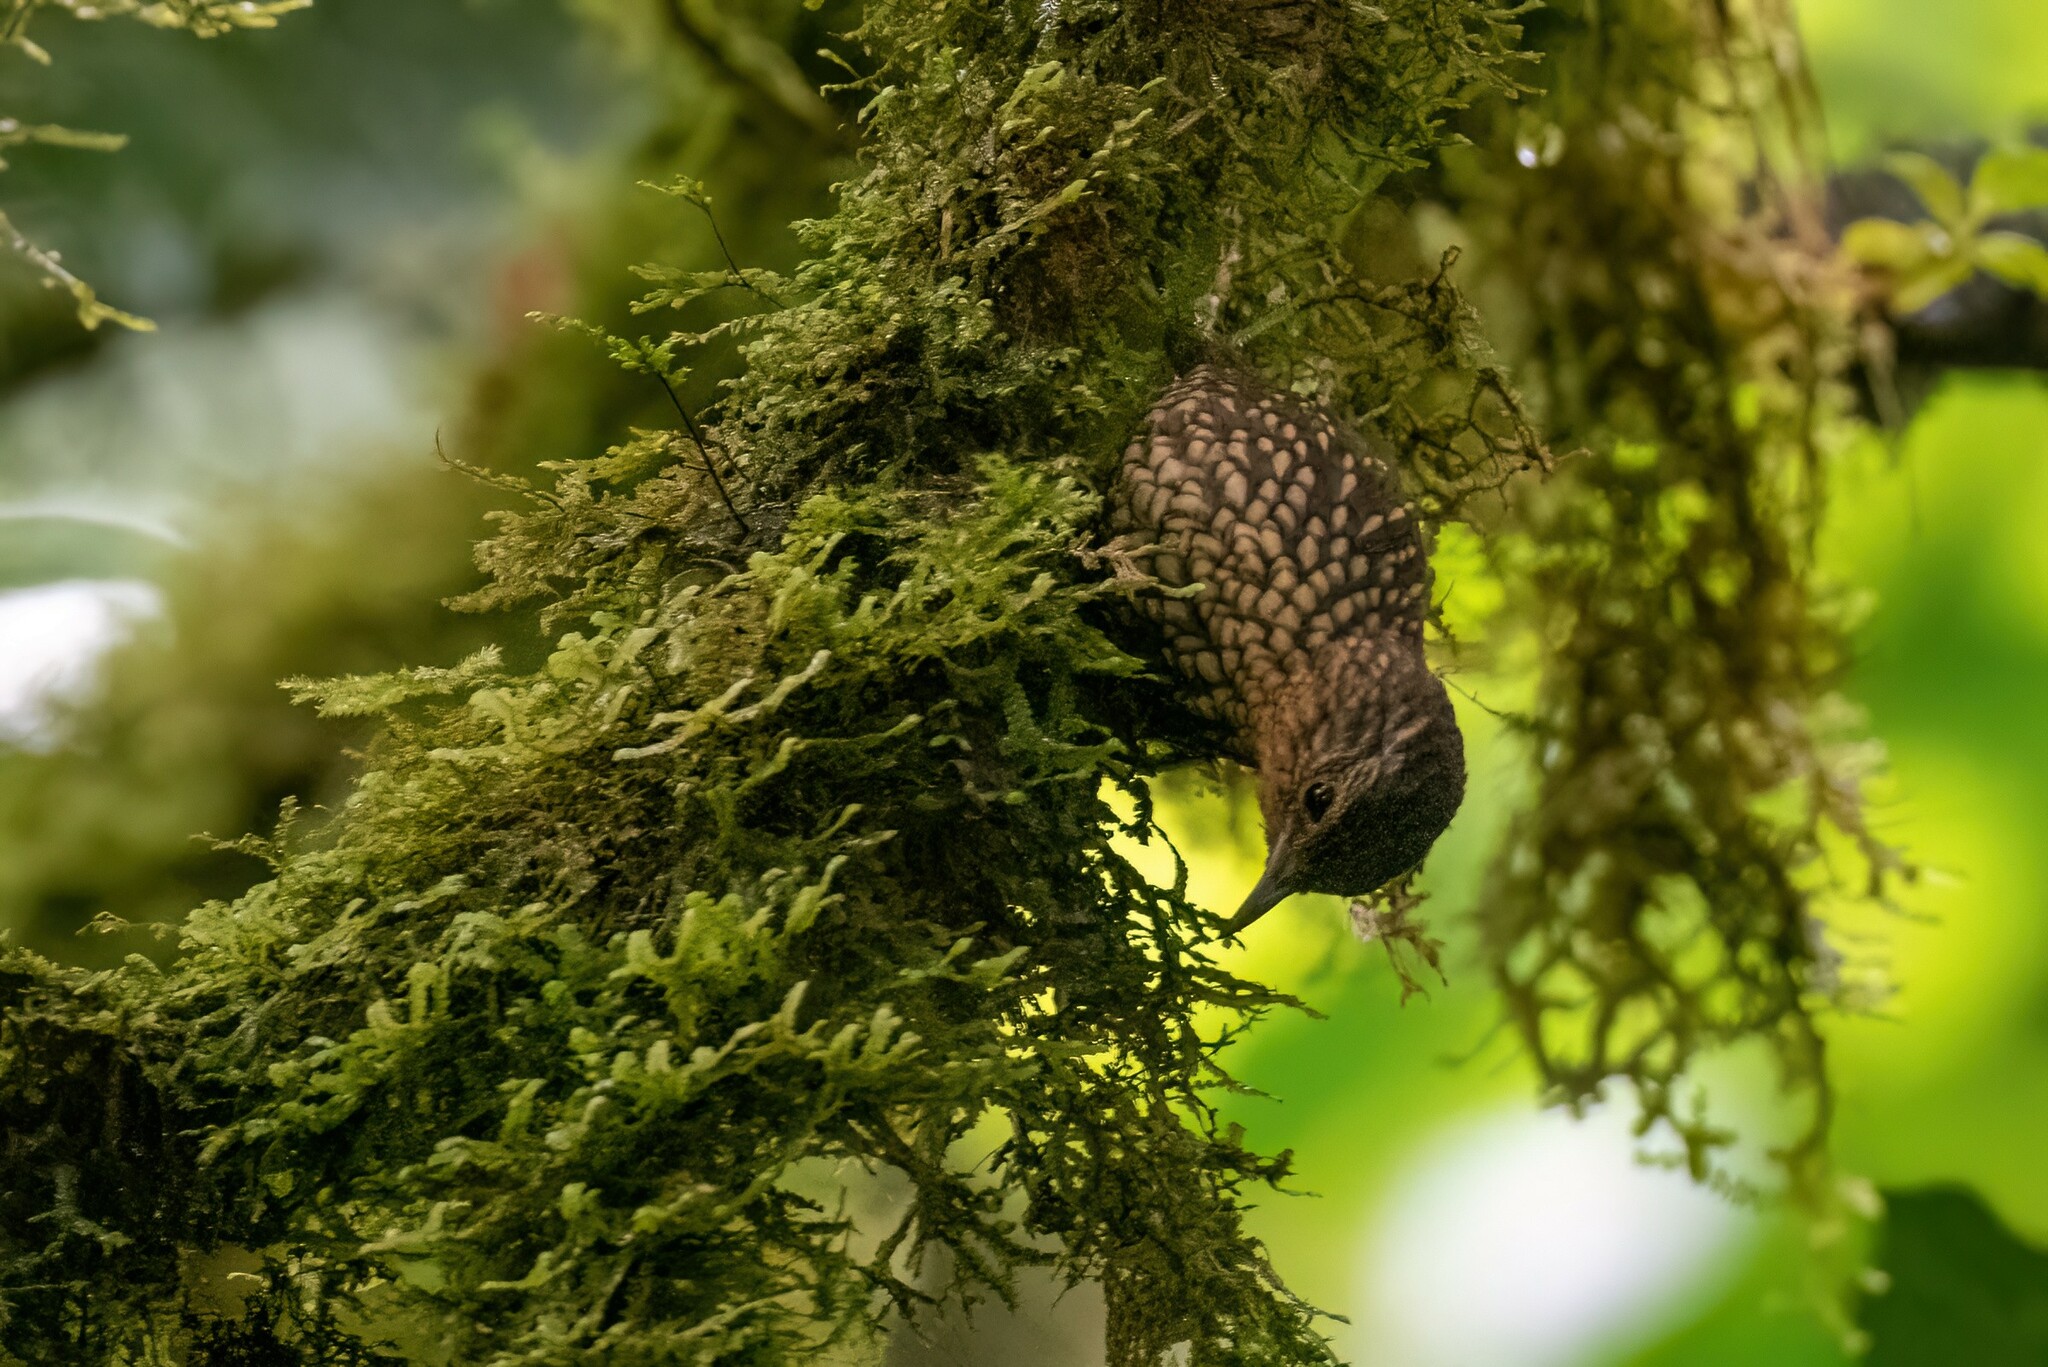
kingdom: Animalia
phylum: Chordata
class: Aves
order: Passeriformes
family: Furnariidae
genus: Premnoplex
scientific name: Premnoplex brunnescens
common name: Spotted barbtail
